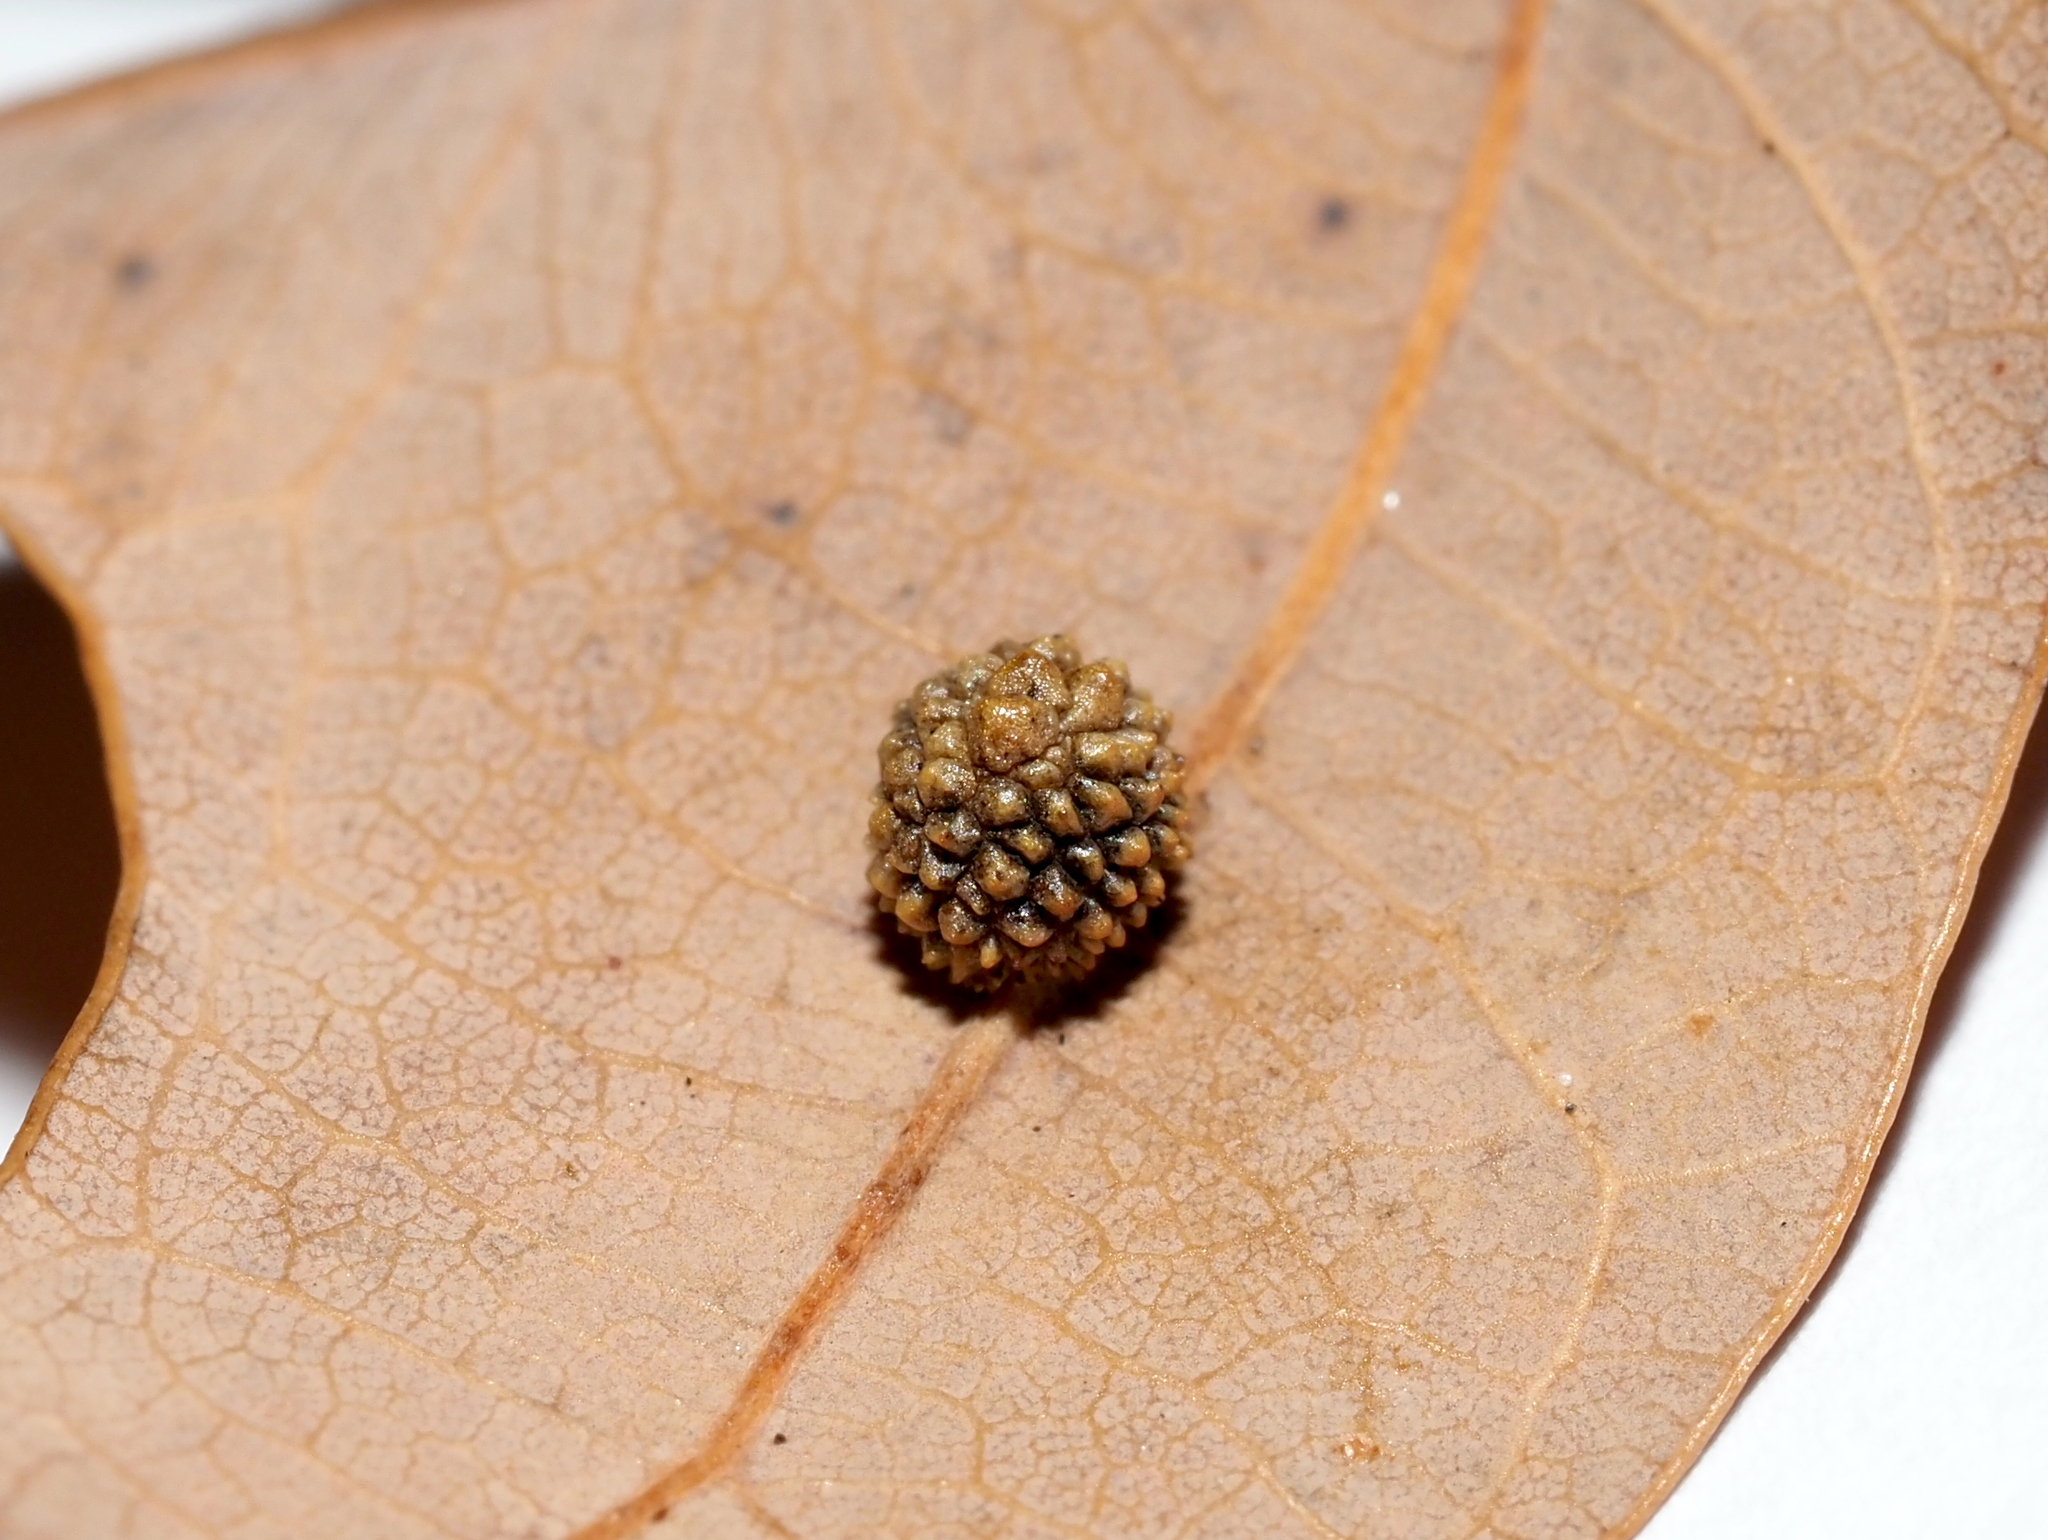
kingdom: Animalia
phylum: Arthropoda
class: Insecta
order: Hymenoptera
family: Cynipidae
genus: Acraspis
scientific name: Acraspis
